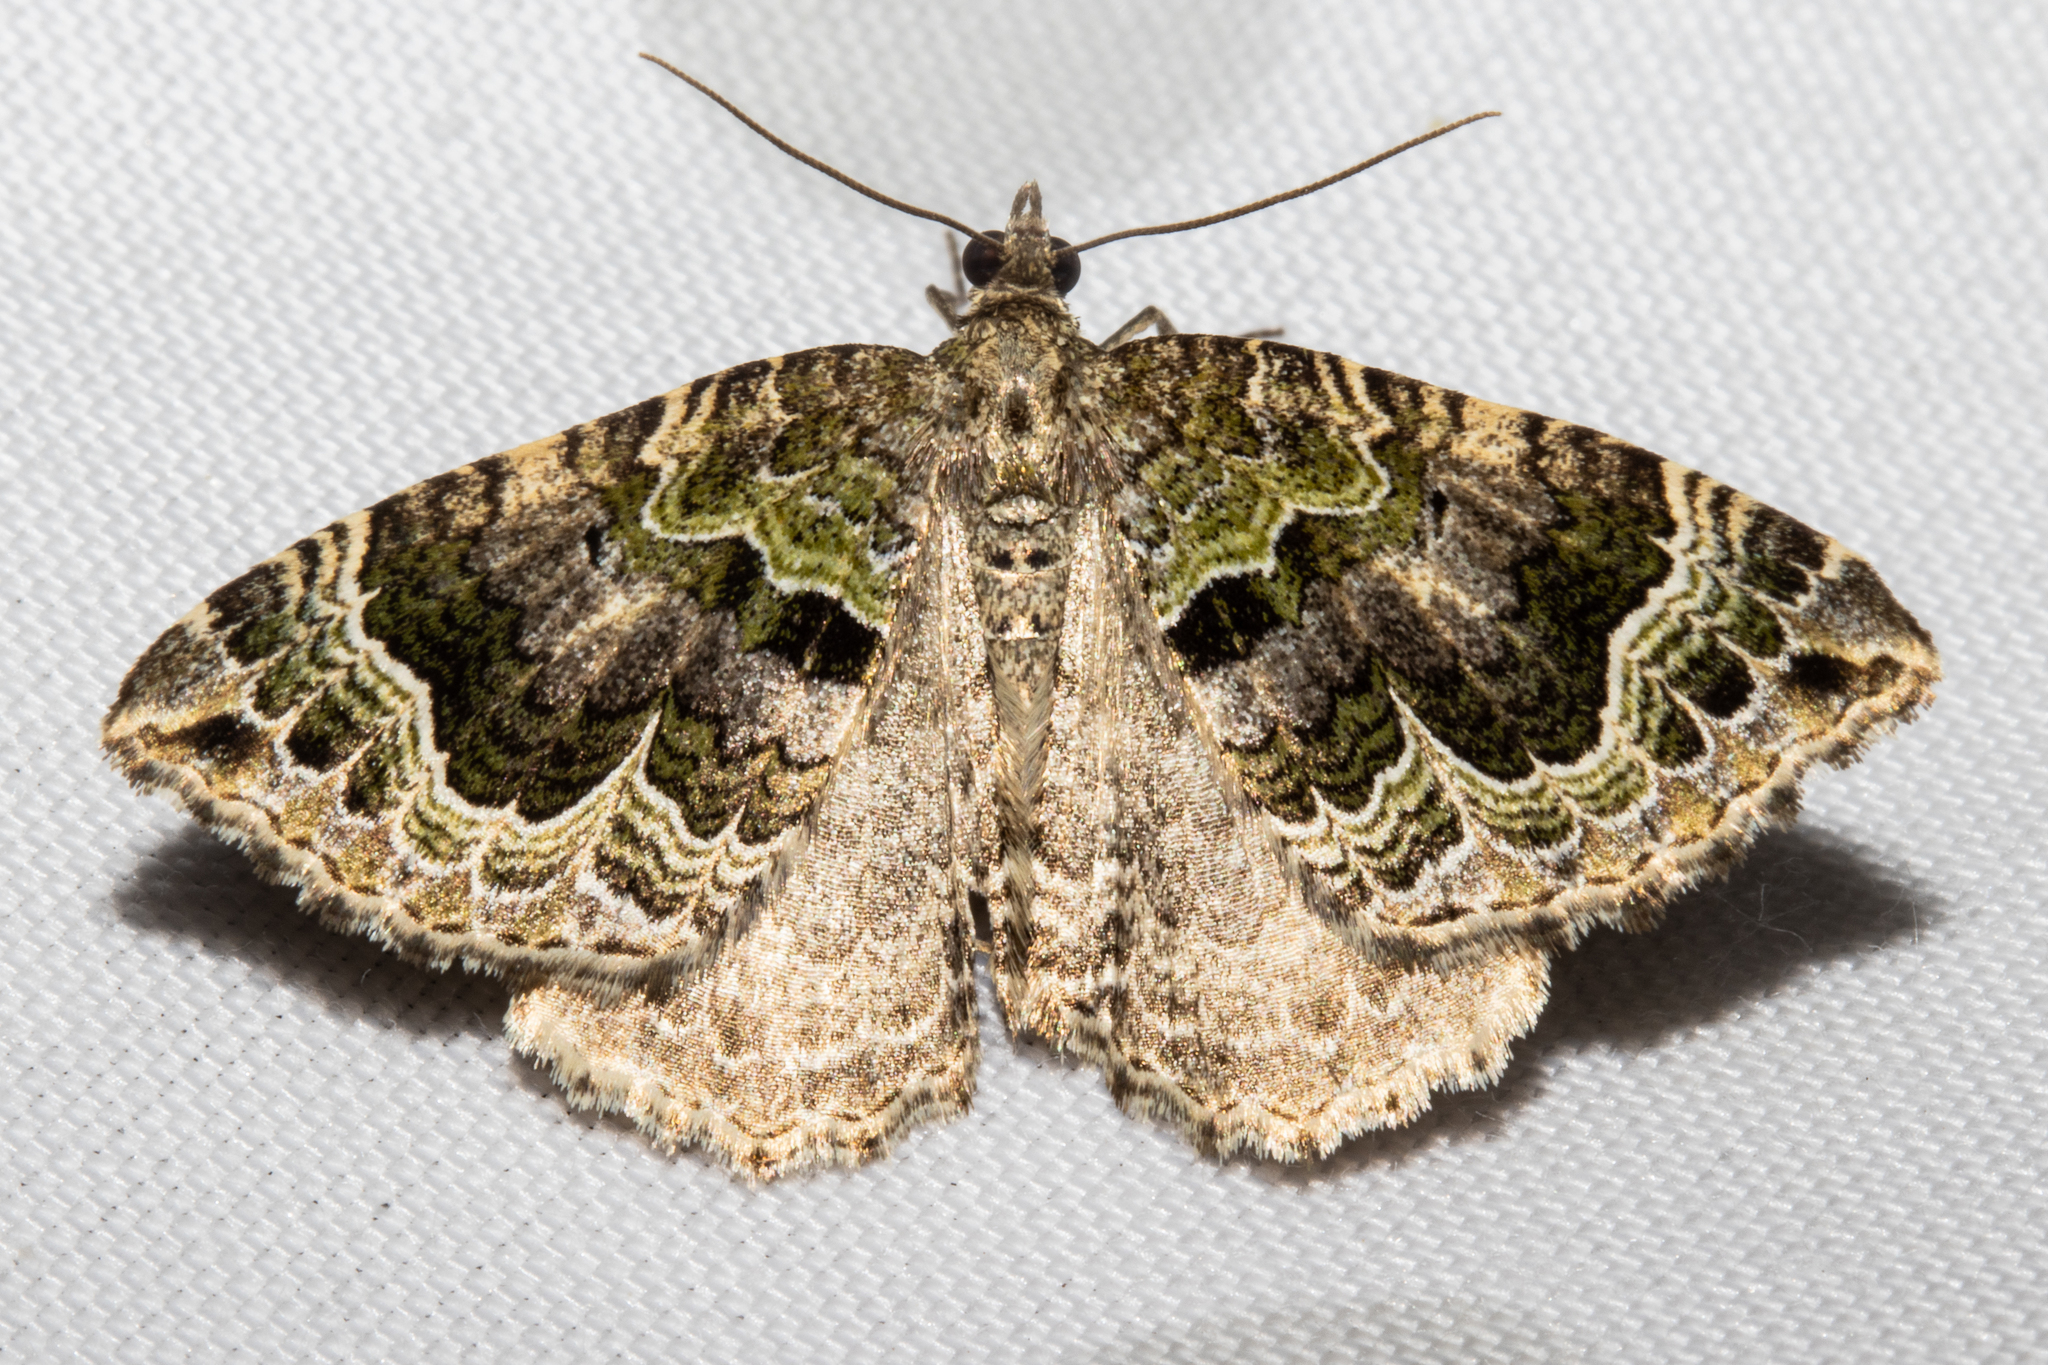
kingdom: Animalia
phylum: Arthropoda
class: Insecta
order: Lepidoptera
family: Geometridae
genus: Hydriomena
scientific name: Hydriomena rixata
